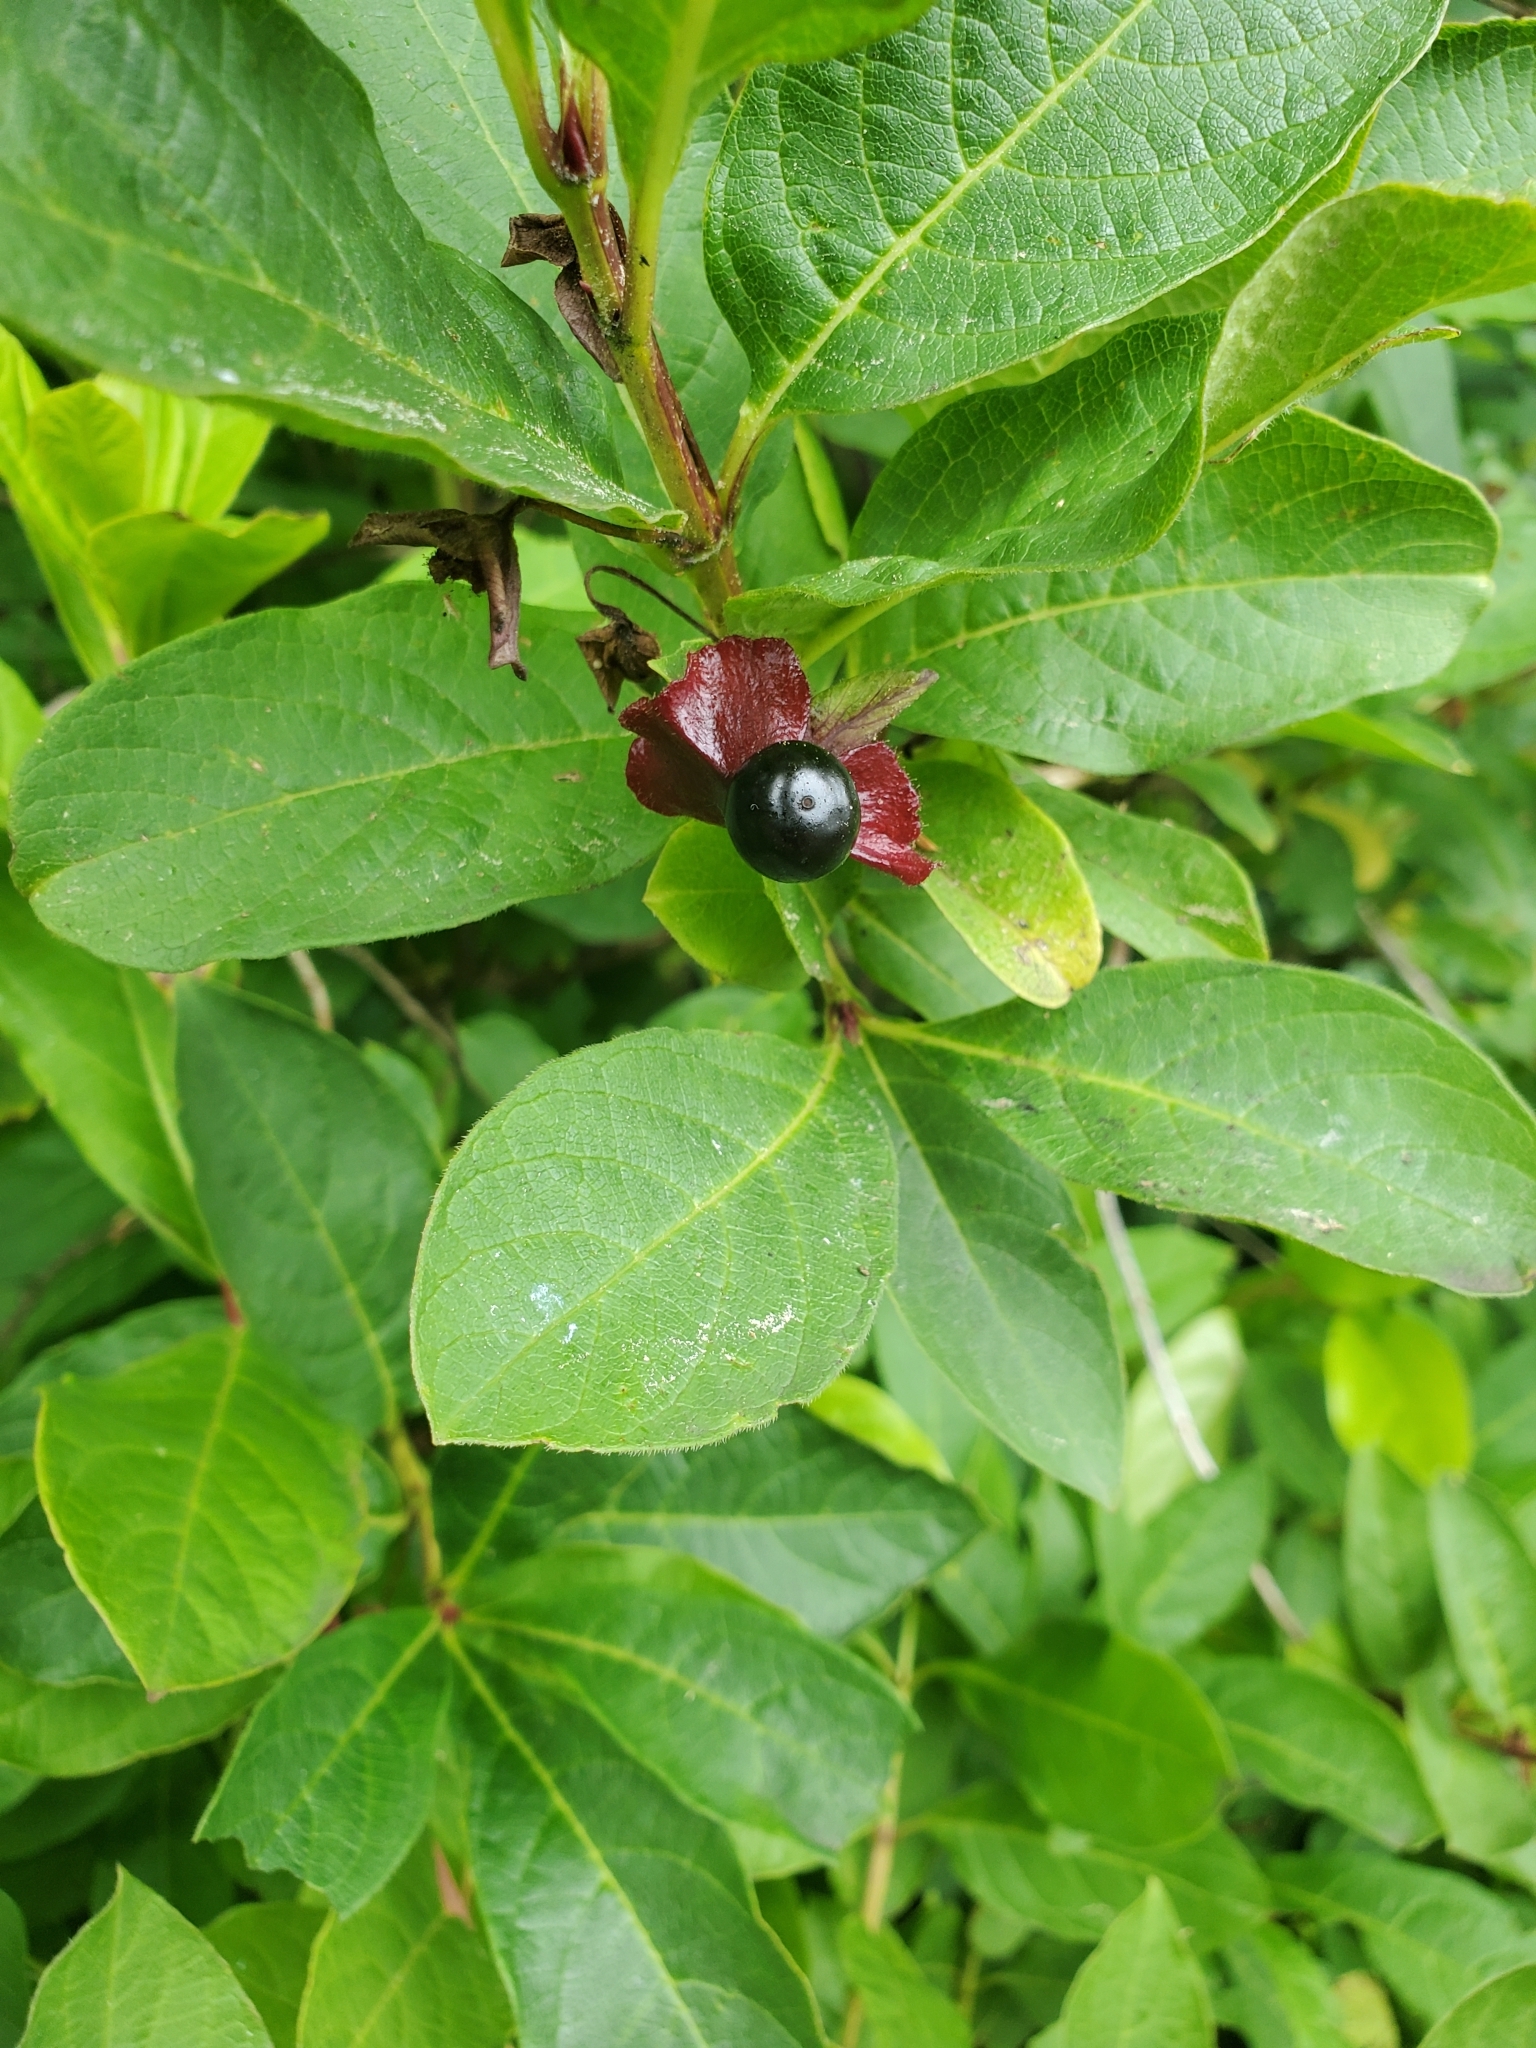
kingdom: Plantae
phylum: Tracheophyta
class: Magnoliopsida
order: Dipsacales
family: Caprifoliaceae
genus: Lonicera
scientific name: Lonicera involucrata
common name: Californian honeysuckle
